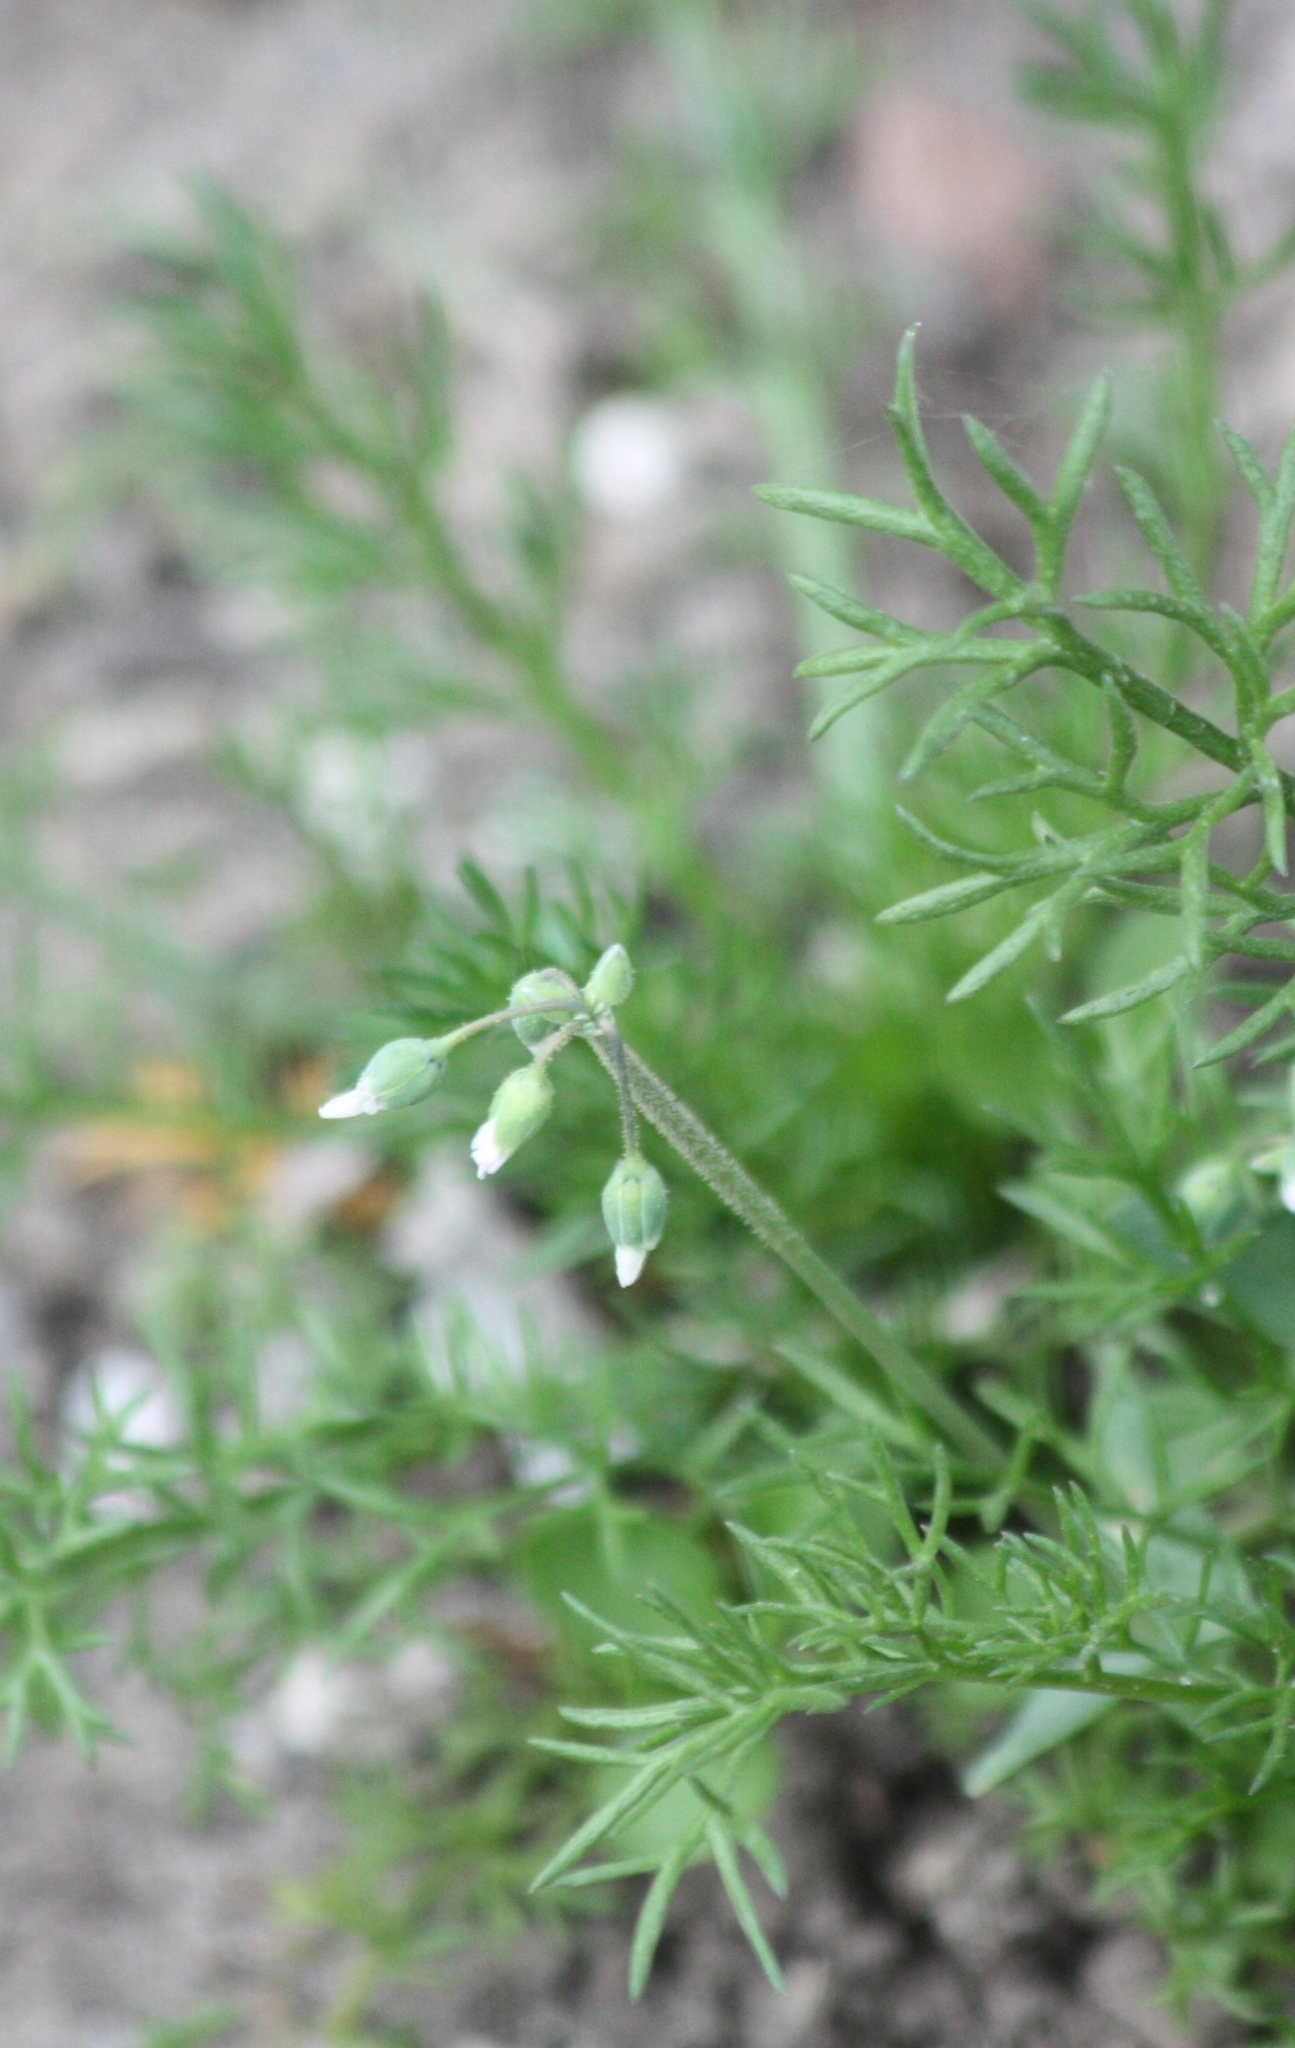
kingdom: Plantae
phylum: Tracheophyta
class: Magnoliopsida
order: Caryophyllales
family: Caryophyllaceae
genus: Holosteum
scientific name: Holosteum umbellatum
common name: Jagged chickweed
